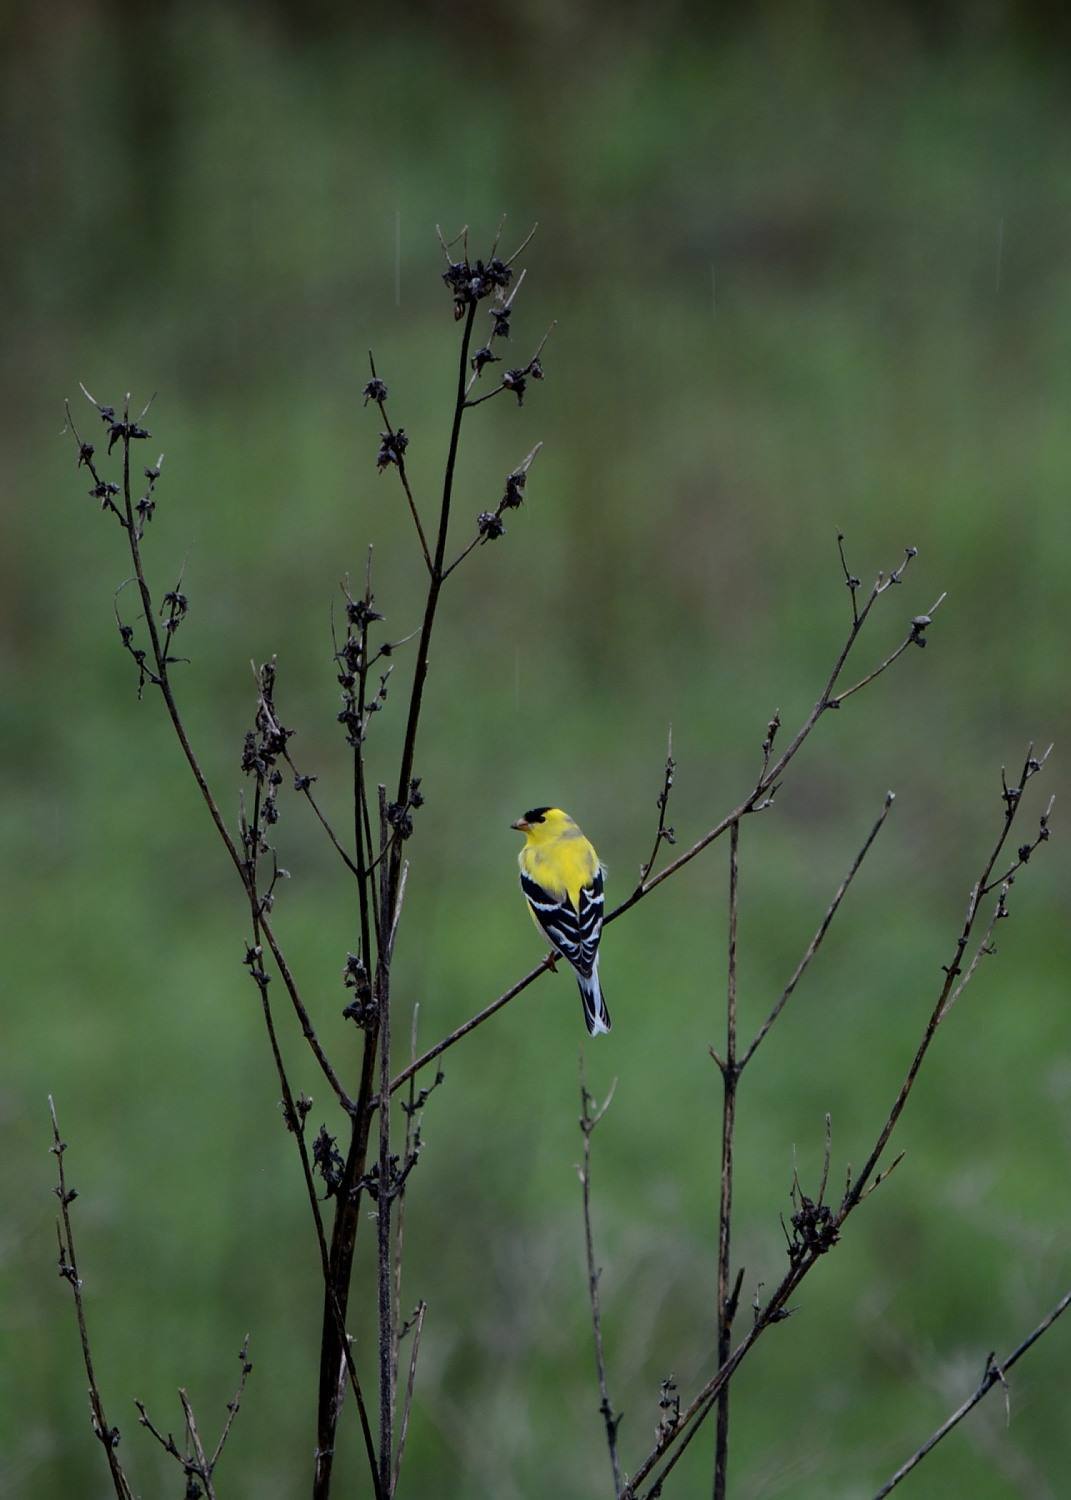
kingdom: Animalia
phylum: Chordata
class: Aves
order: Passeriformes
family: Fringillidae
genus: Spinus
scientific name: Spinus tristis
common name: American goldfinch
